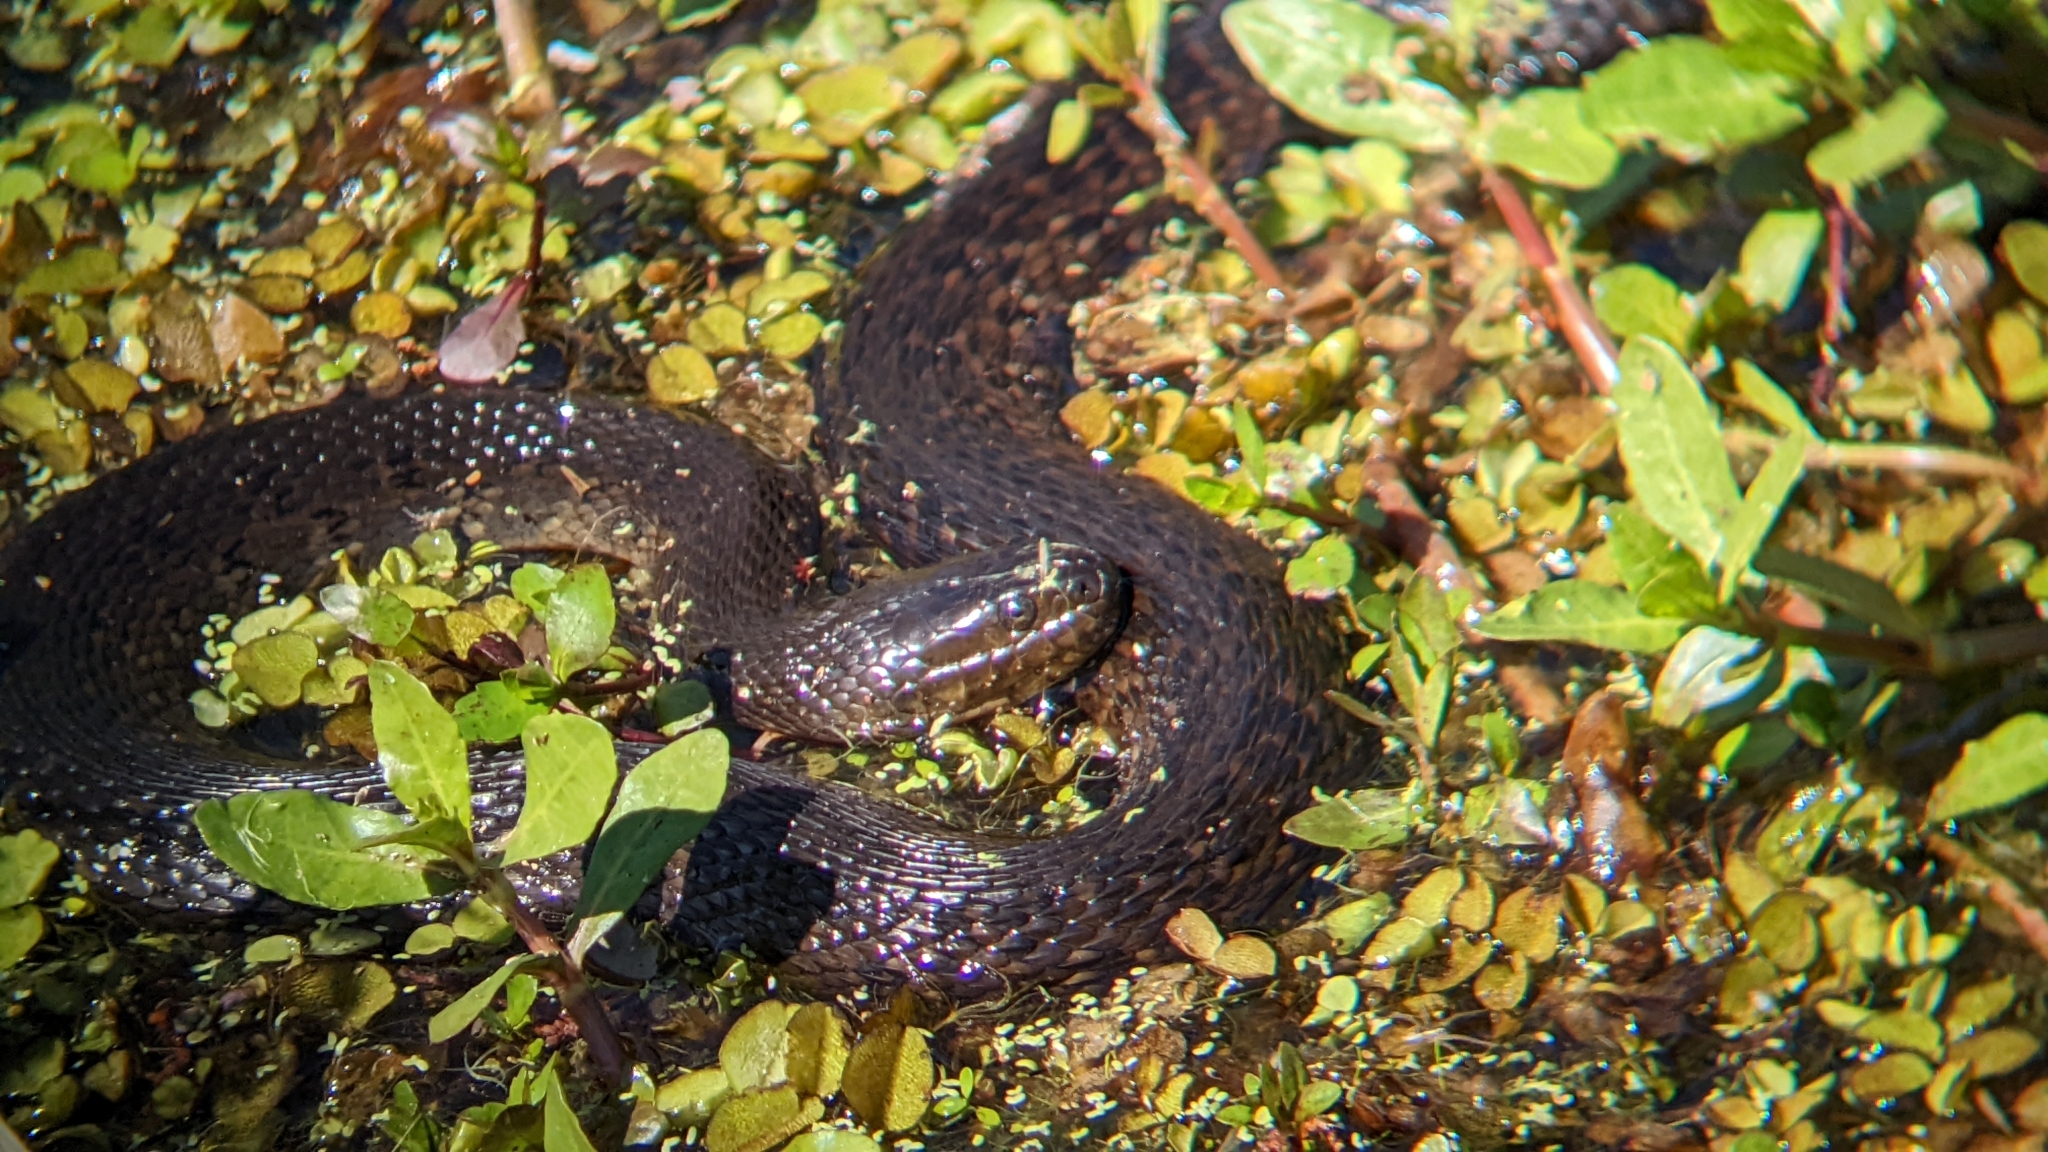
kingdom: Animalia
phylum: Chordata
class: Squamata
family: Colubridae
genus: Nerodia
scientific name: Nerodia cyclopion
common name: Mississippi green water snake
